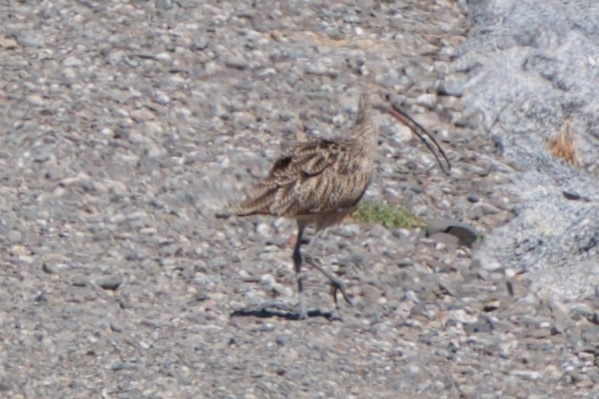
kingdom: Animalia
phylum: Chordata
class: Aves
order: Charadriiformes
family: Scolopacidae
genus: Numenius
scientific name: Numenius americanus
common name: Long-billed curlew
